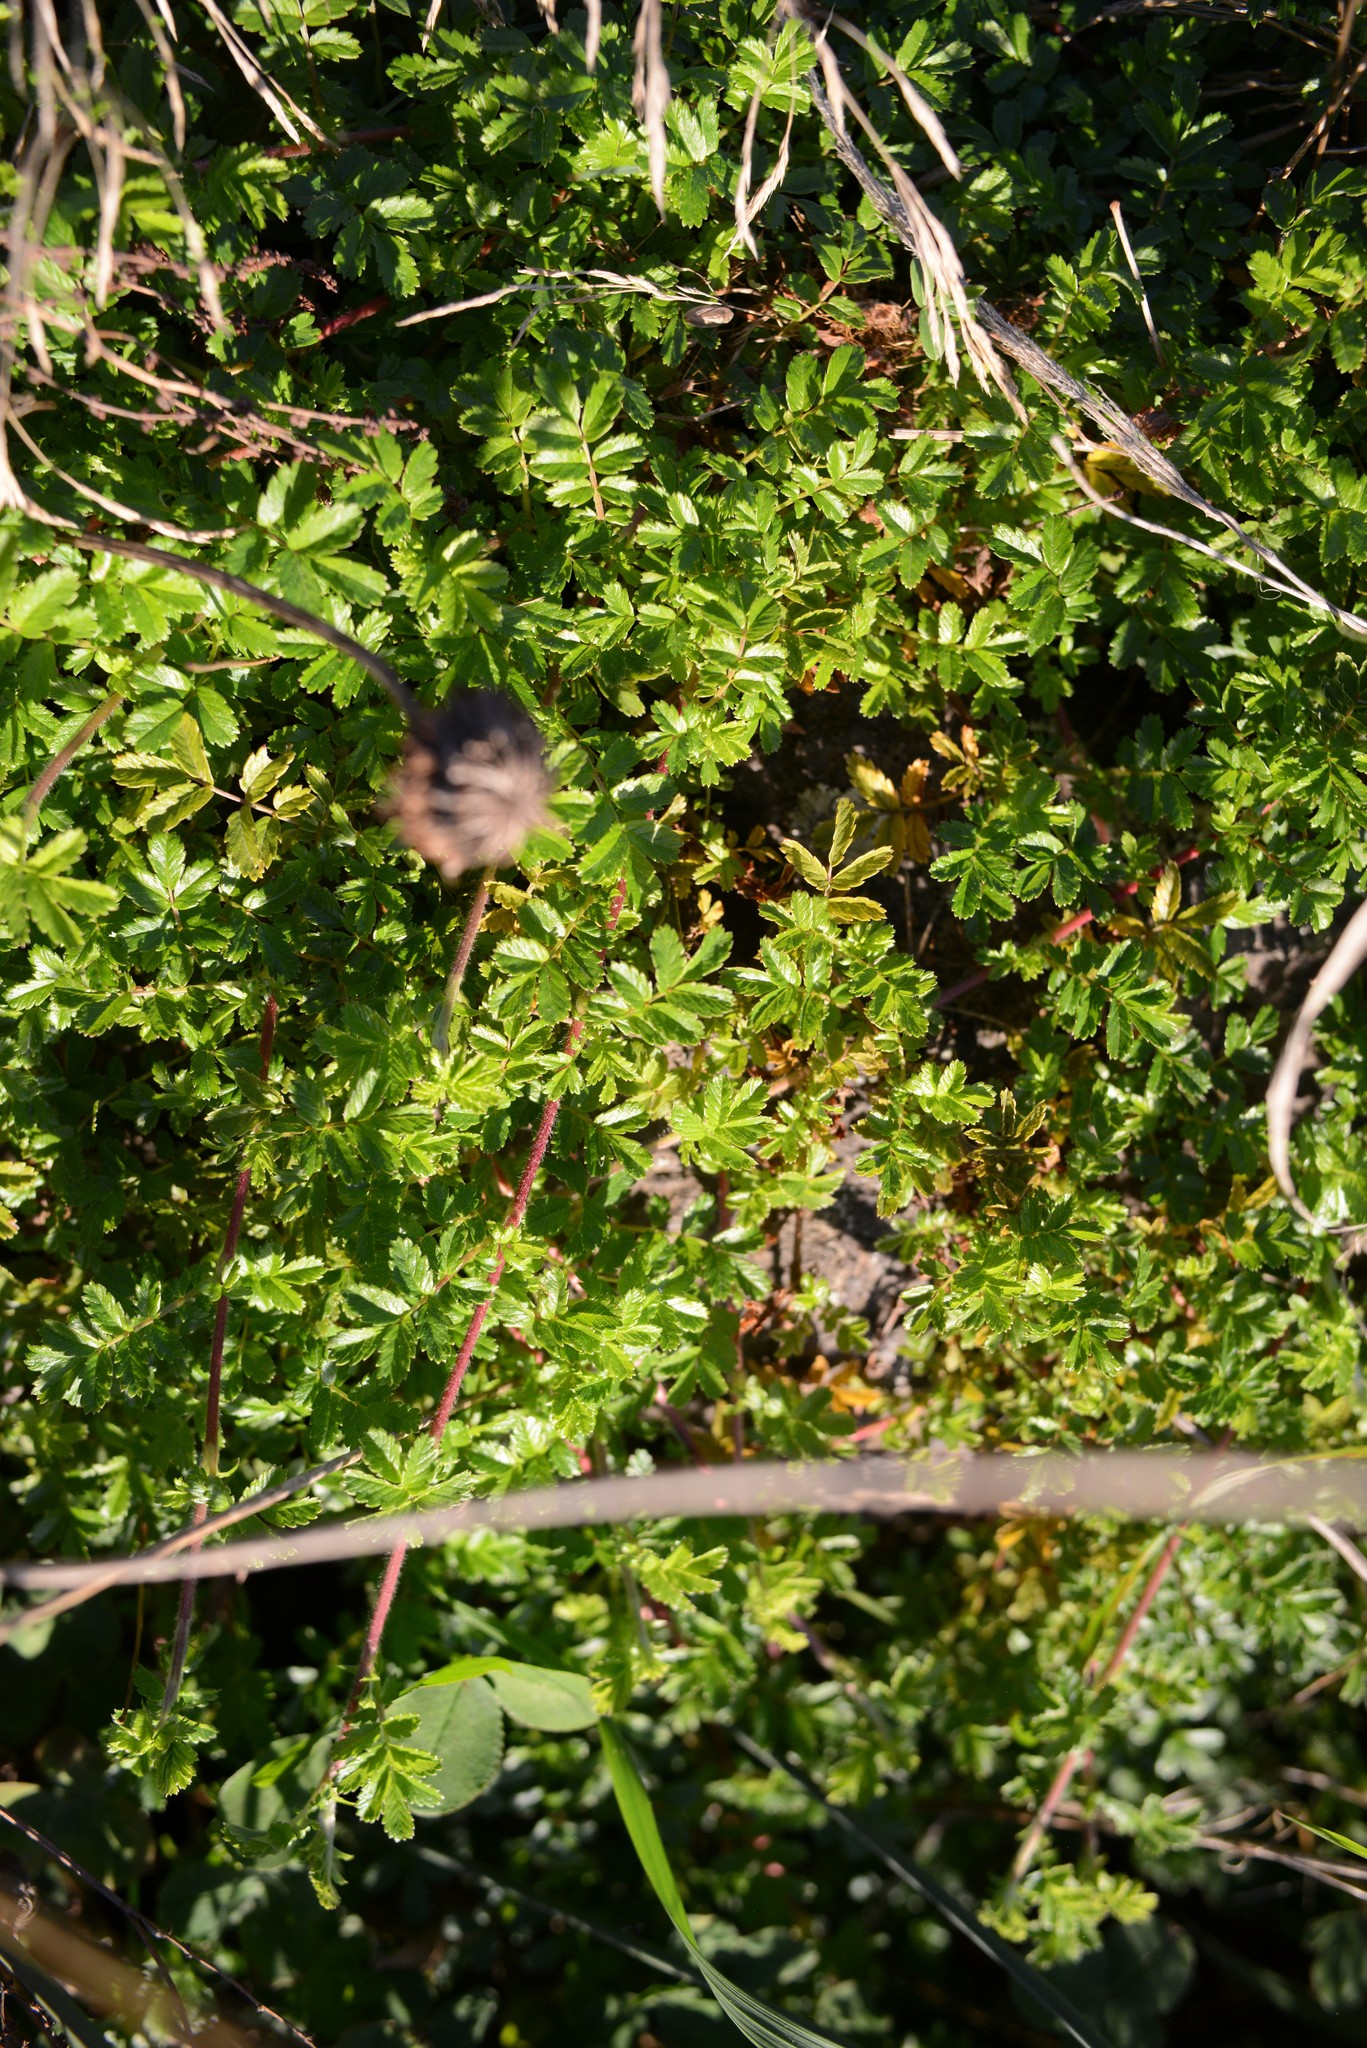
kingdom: Plantae
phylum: Tracheophyta
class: Magnoliopsida
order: Rosales
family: Rosaceae
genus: Acaena
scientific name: Acaena novae-zelandiae
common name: Pirri-pirri-bur
